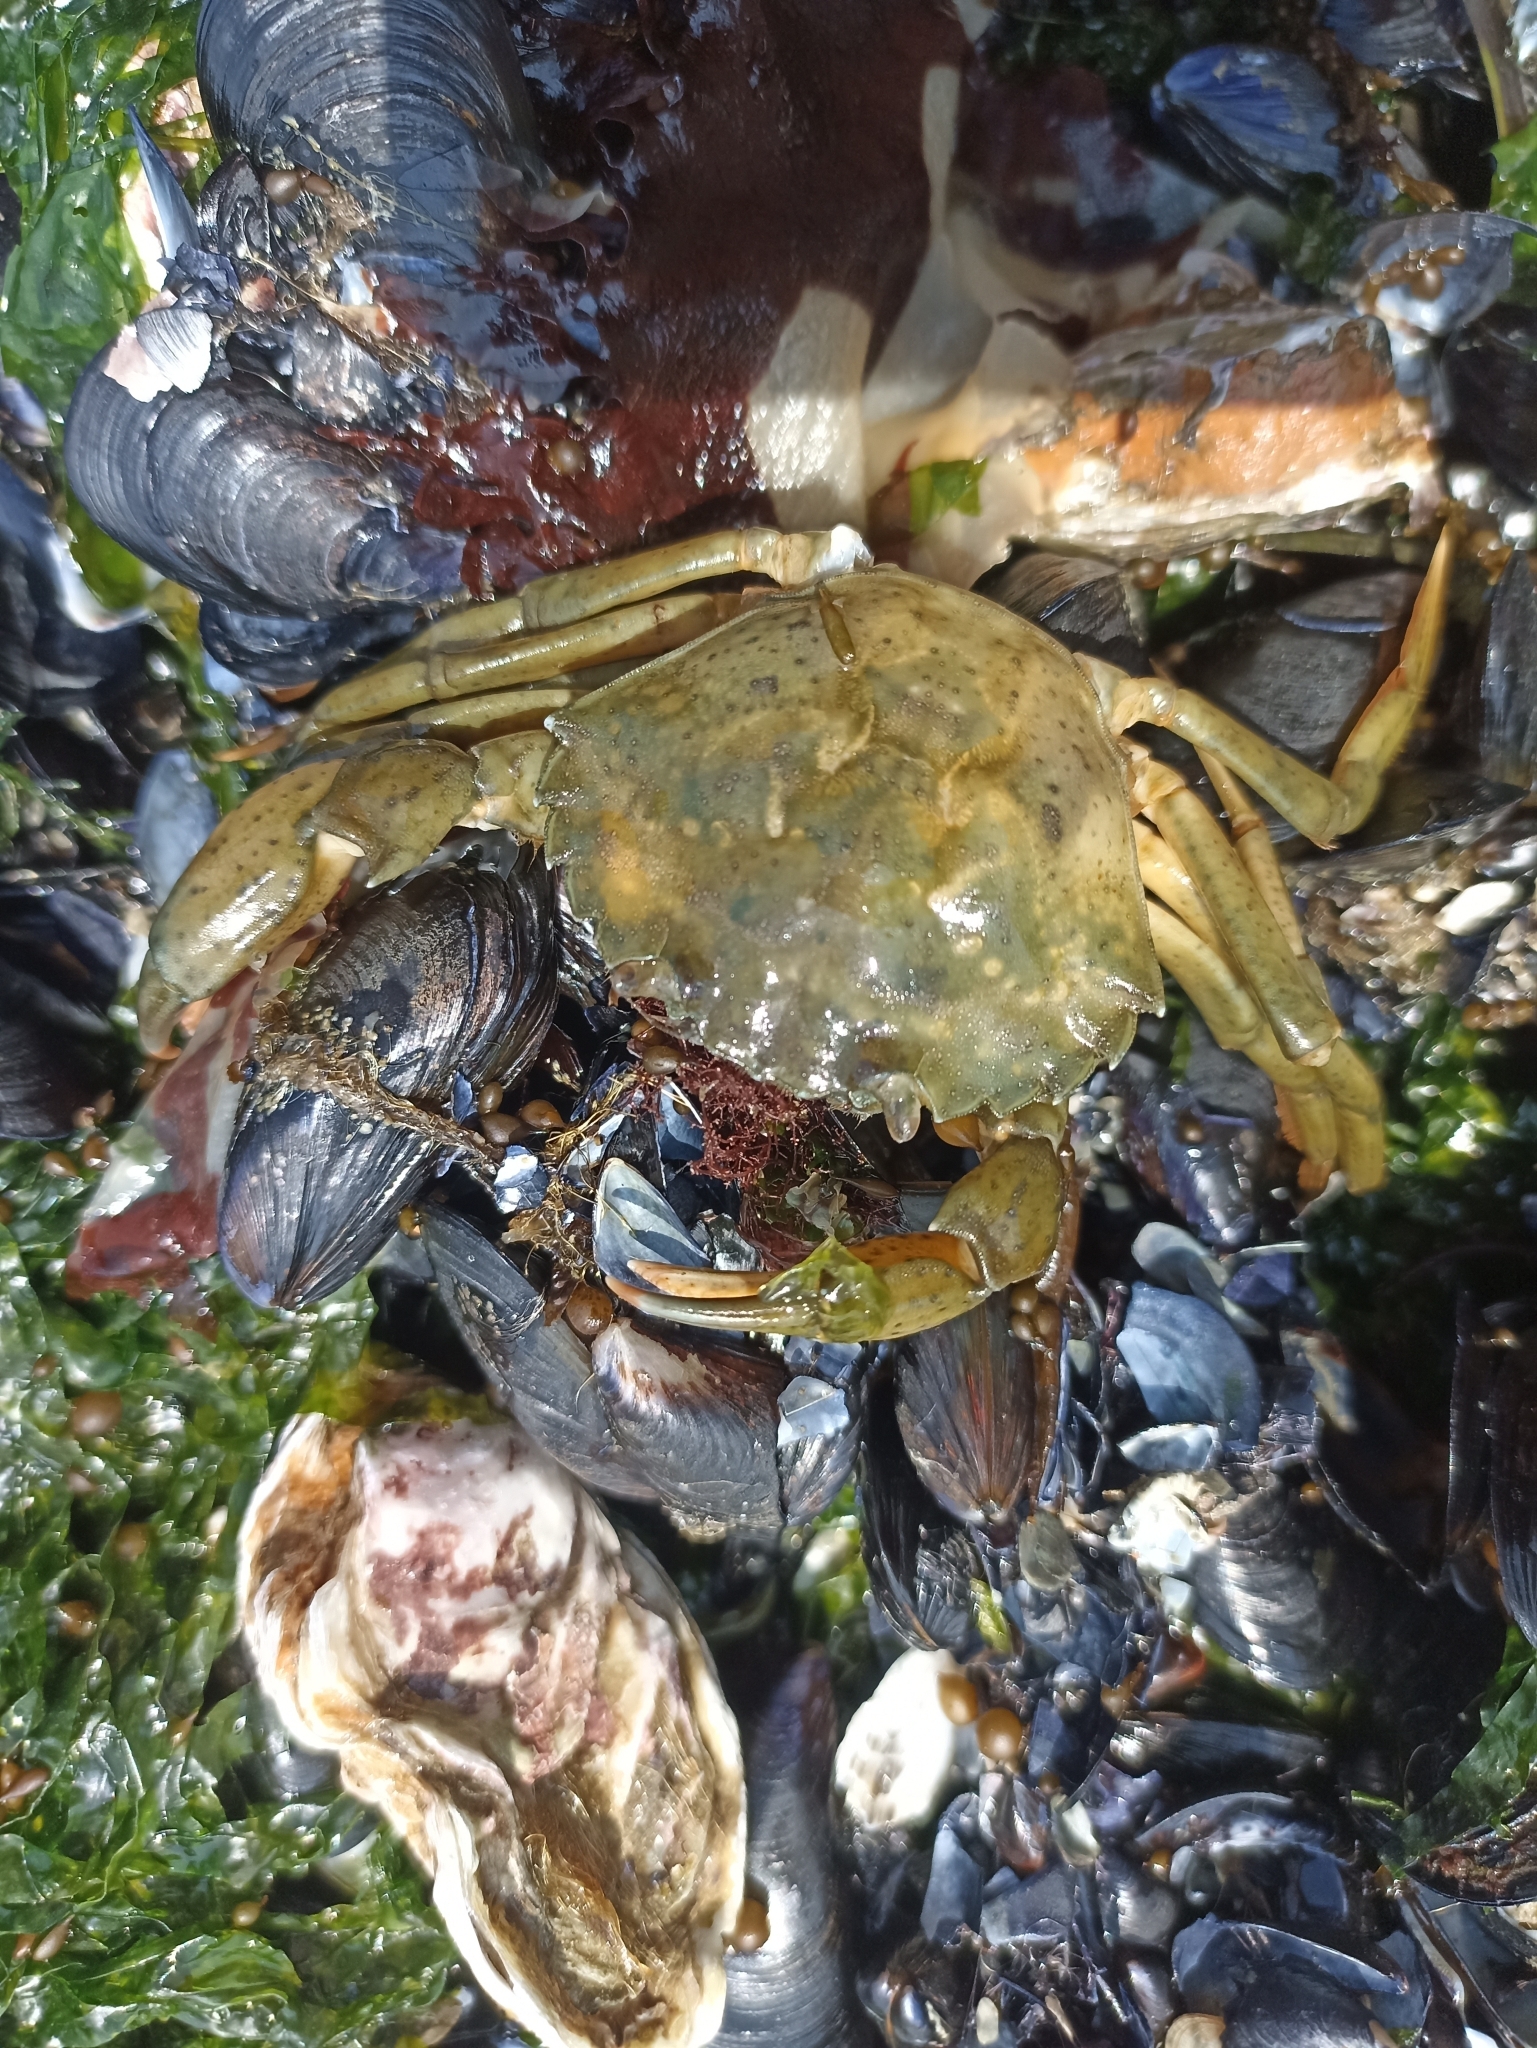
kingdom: Animalia
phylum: Arthropoda
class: Malacostraca
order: Decapoda
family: Carcinidae
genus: Carcinus
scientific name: Carcinus aestuarii
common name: Mediterranean green crab
